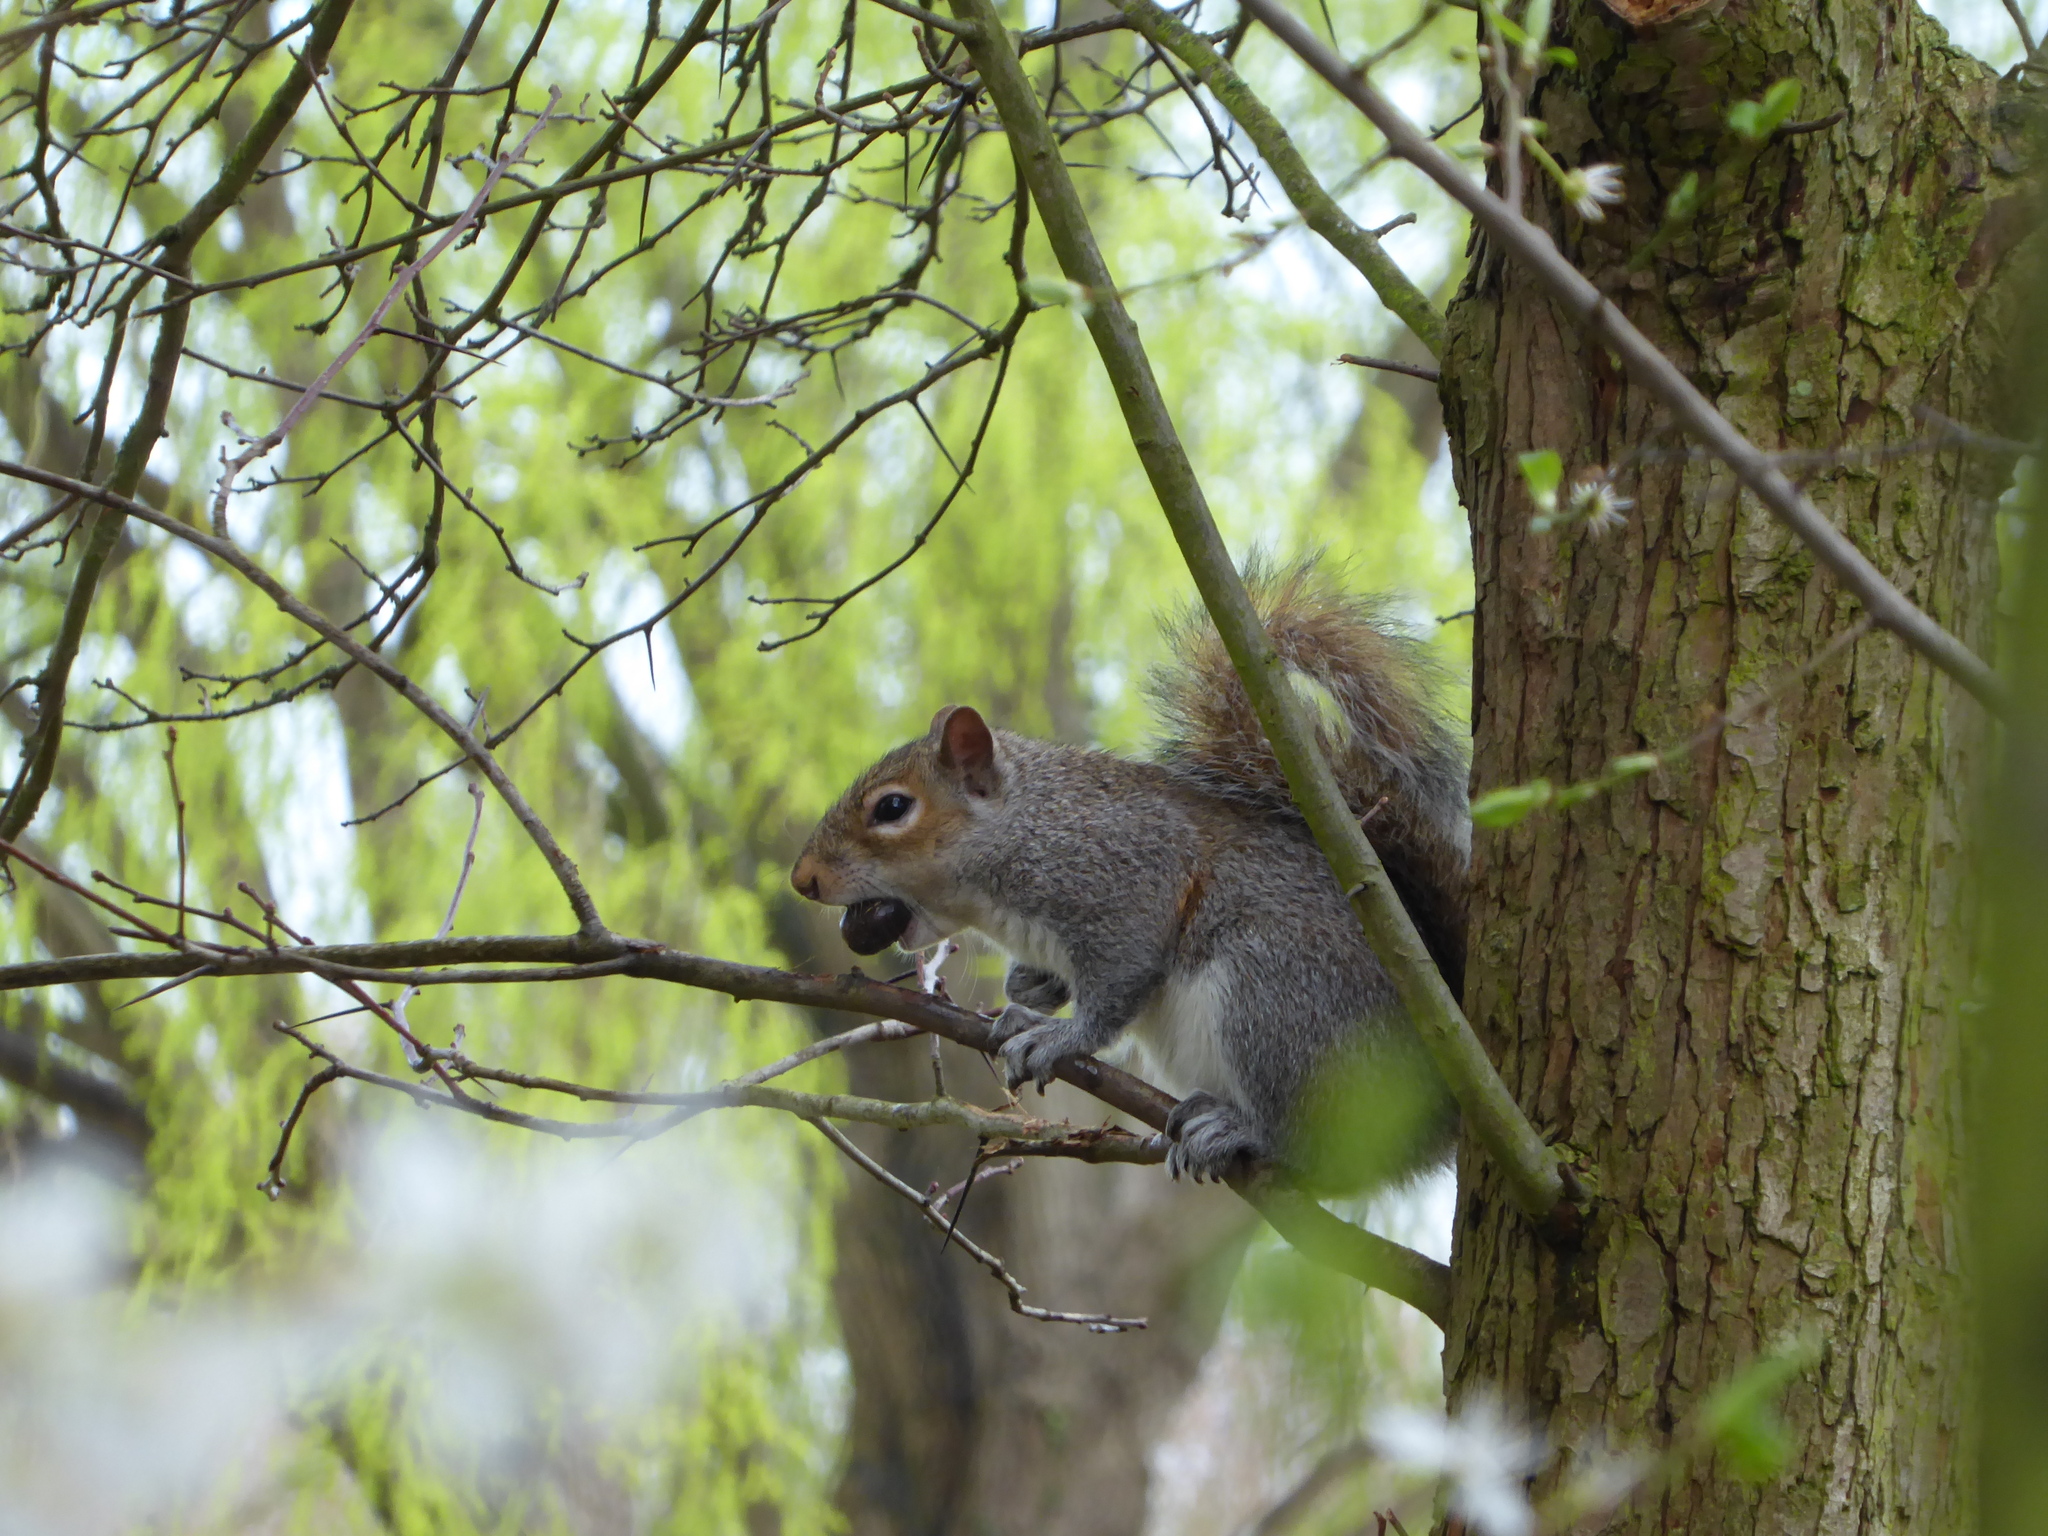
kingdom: Animalia
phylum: Chordata
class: Mammalia
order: Rodentia
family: Sciuridae
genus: Sciurus
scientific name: Sciurus carolinensis
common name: Eastern gray squirrel
